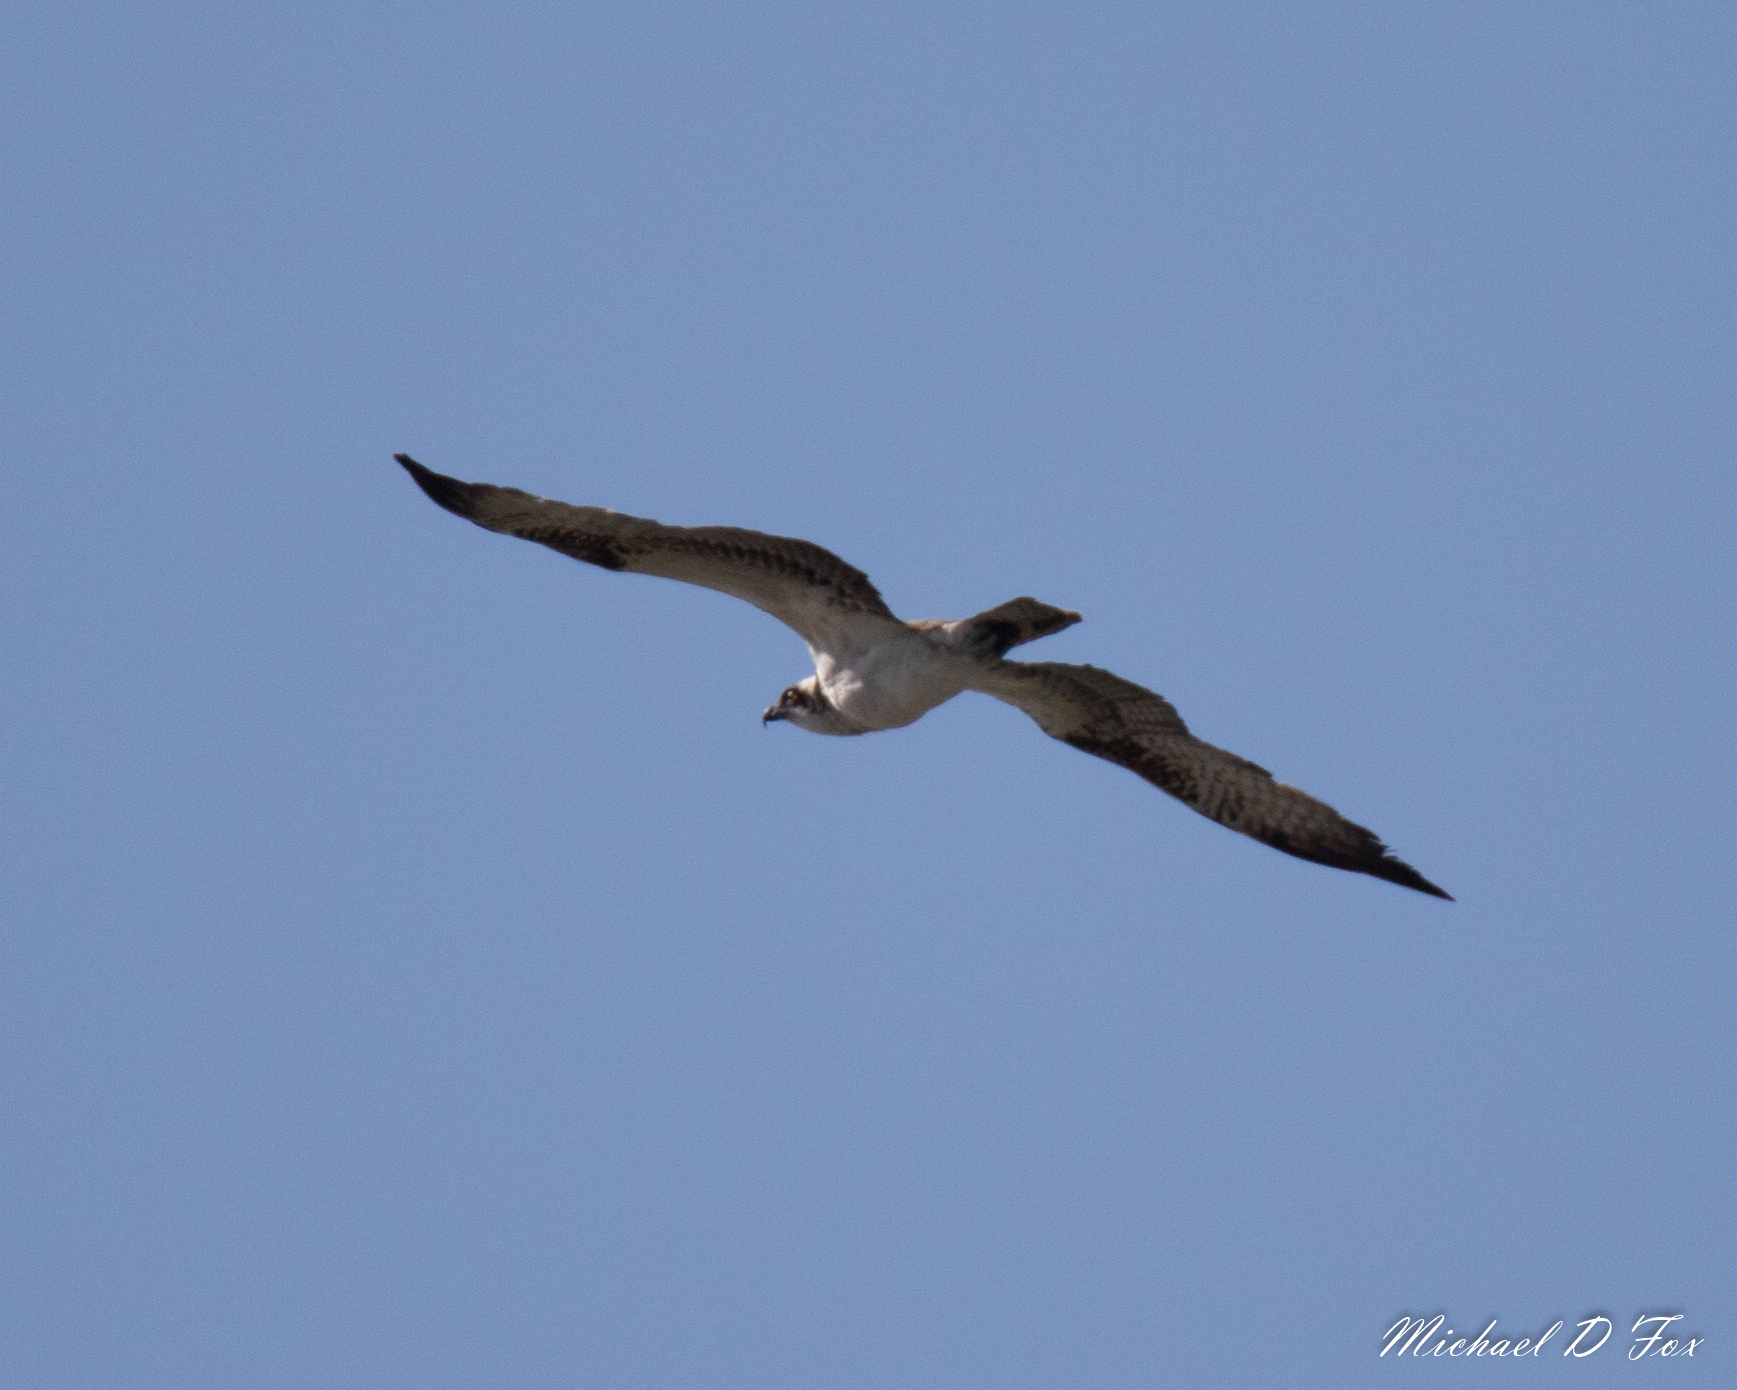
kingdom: Animalia
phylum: Chordata
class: Aves
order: Accipitriformes
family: Pandionidae
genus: Pandion
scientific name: Pandion haliaetus
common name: Osprey
